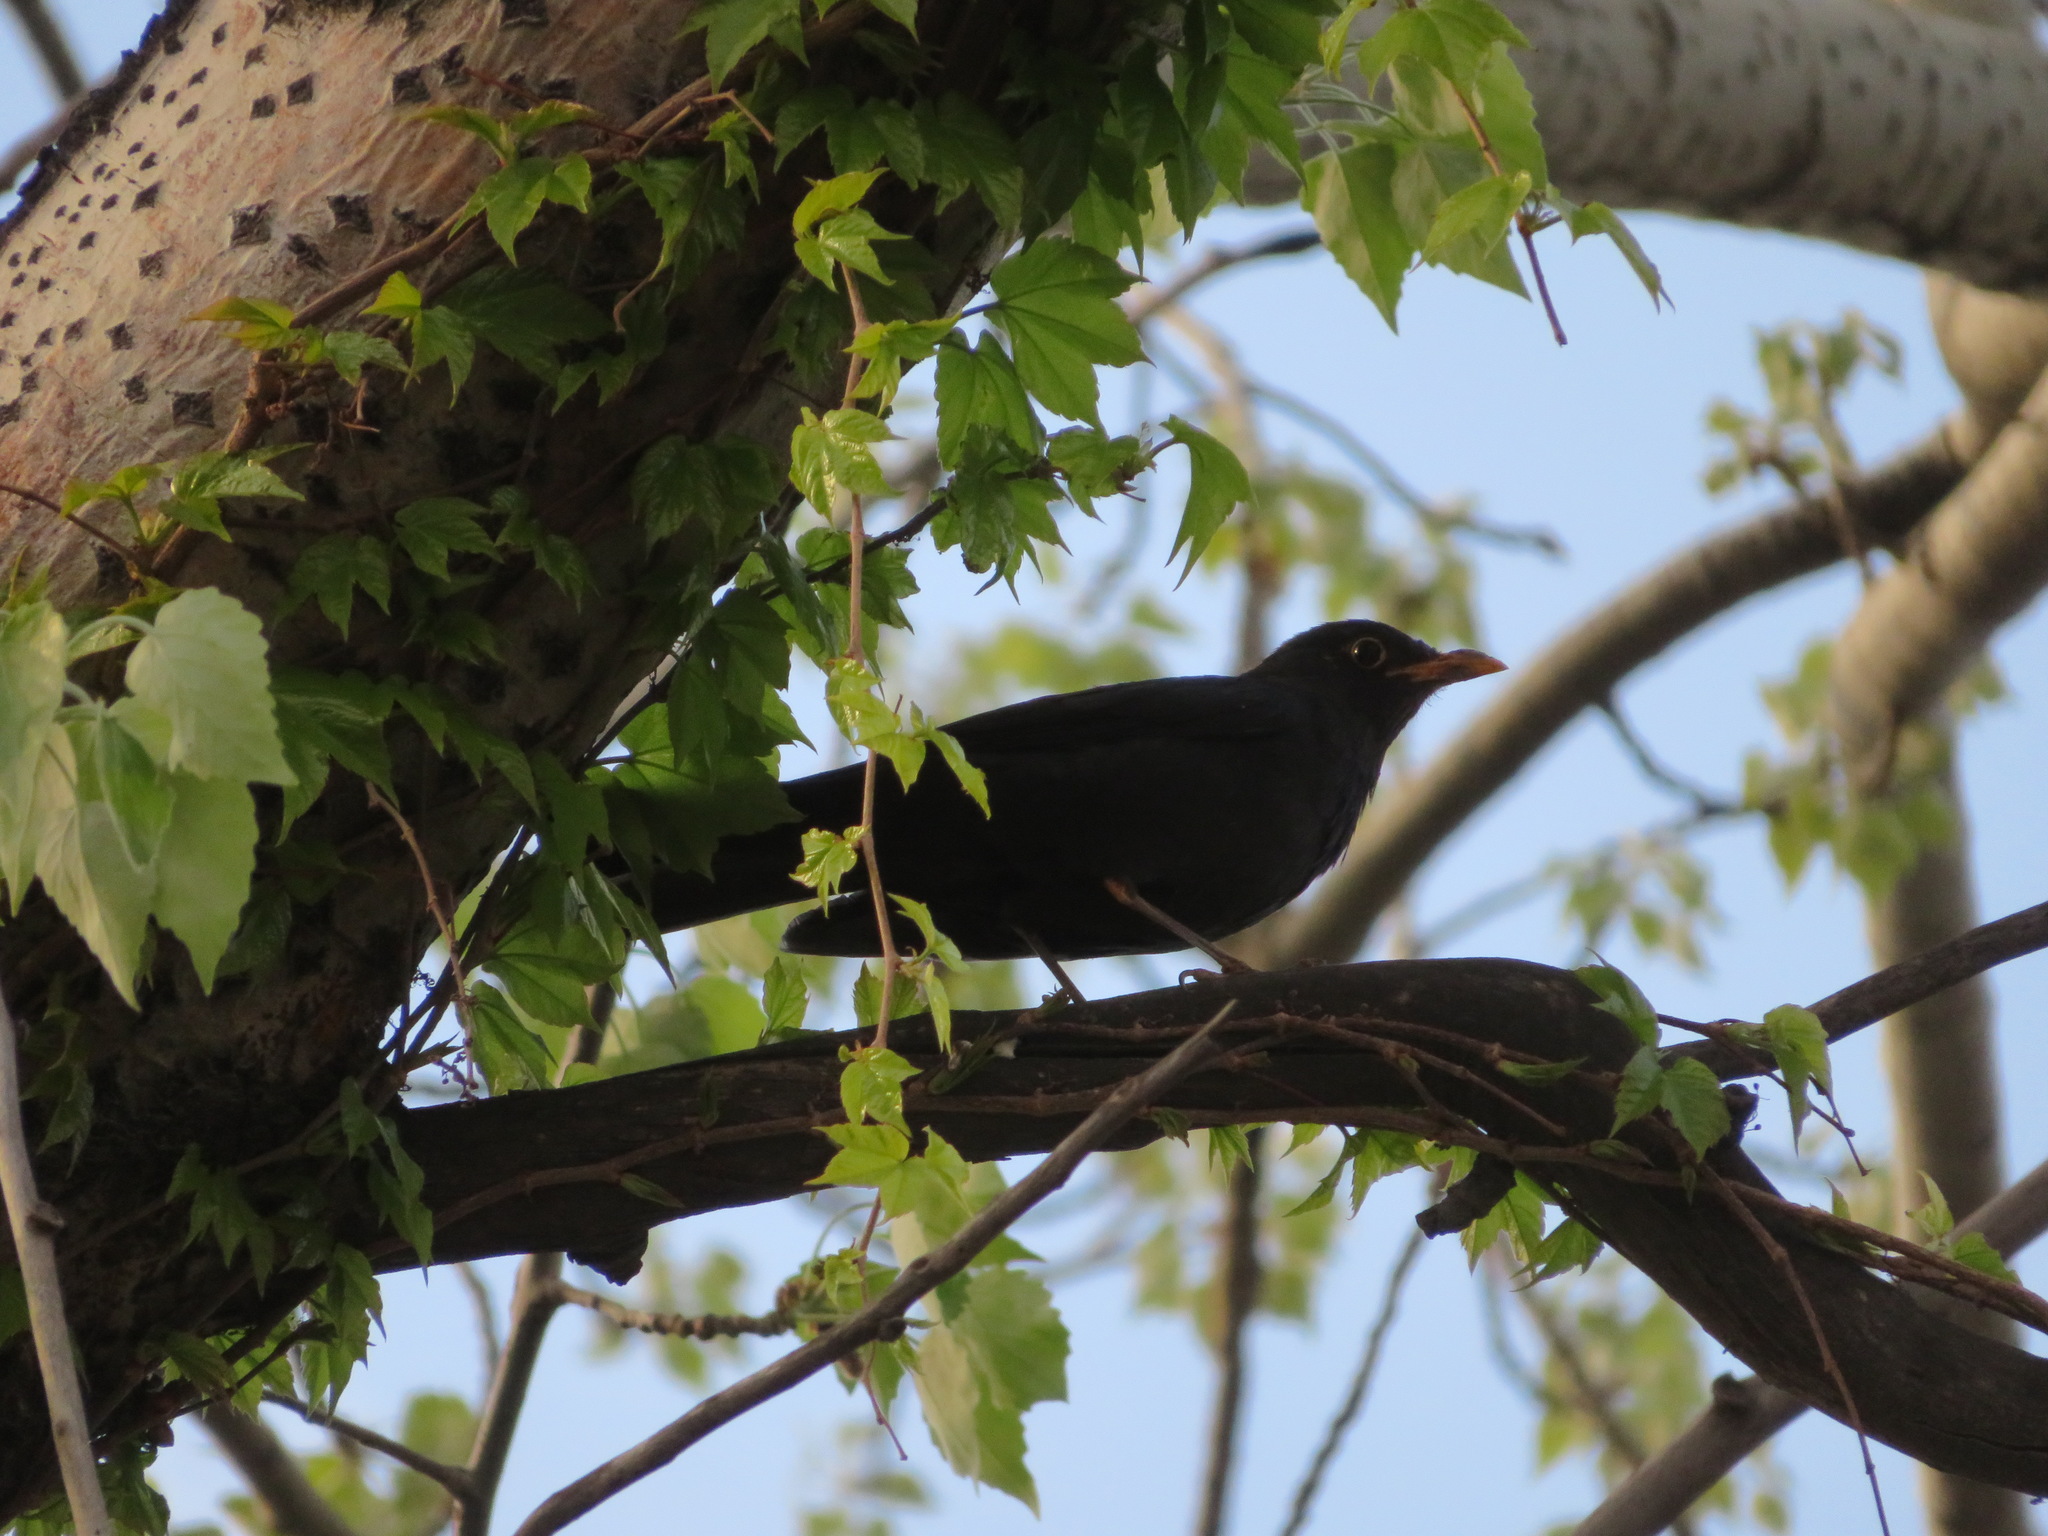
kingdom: Animalia
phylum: Chordata
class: Aves
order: Passeriformes
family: Turdidae
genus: Turdus
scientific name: Turdus mandarinus
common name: Chinese blackbird
